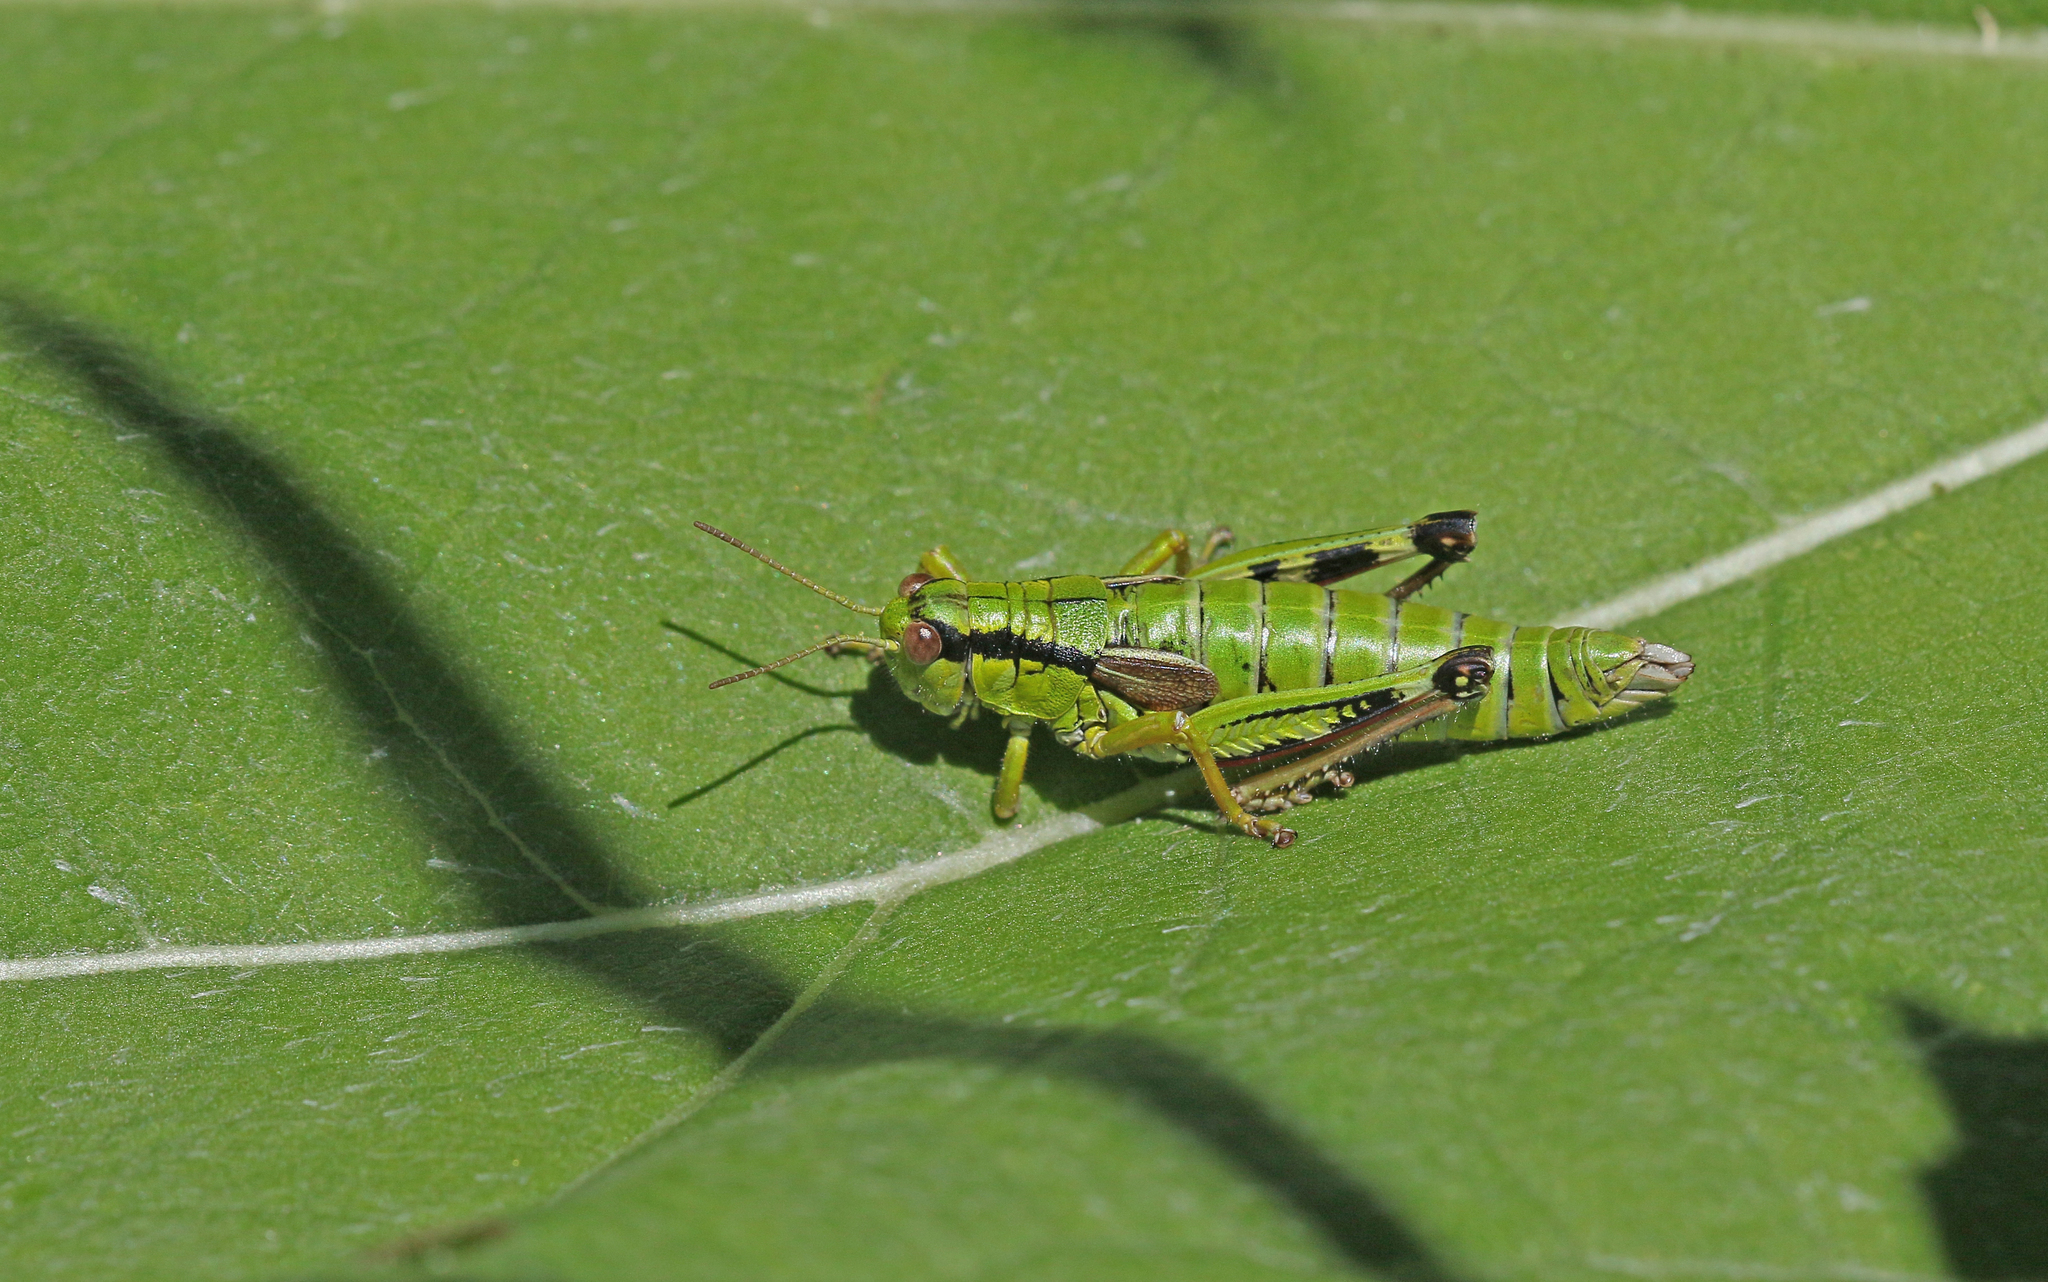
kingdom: Animalia
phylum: Arthropoda
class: Insecta
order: Orthoptera
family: Acrididae
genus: Miramella
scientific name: Miramella alpina
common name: Green mountain grasshopper
